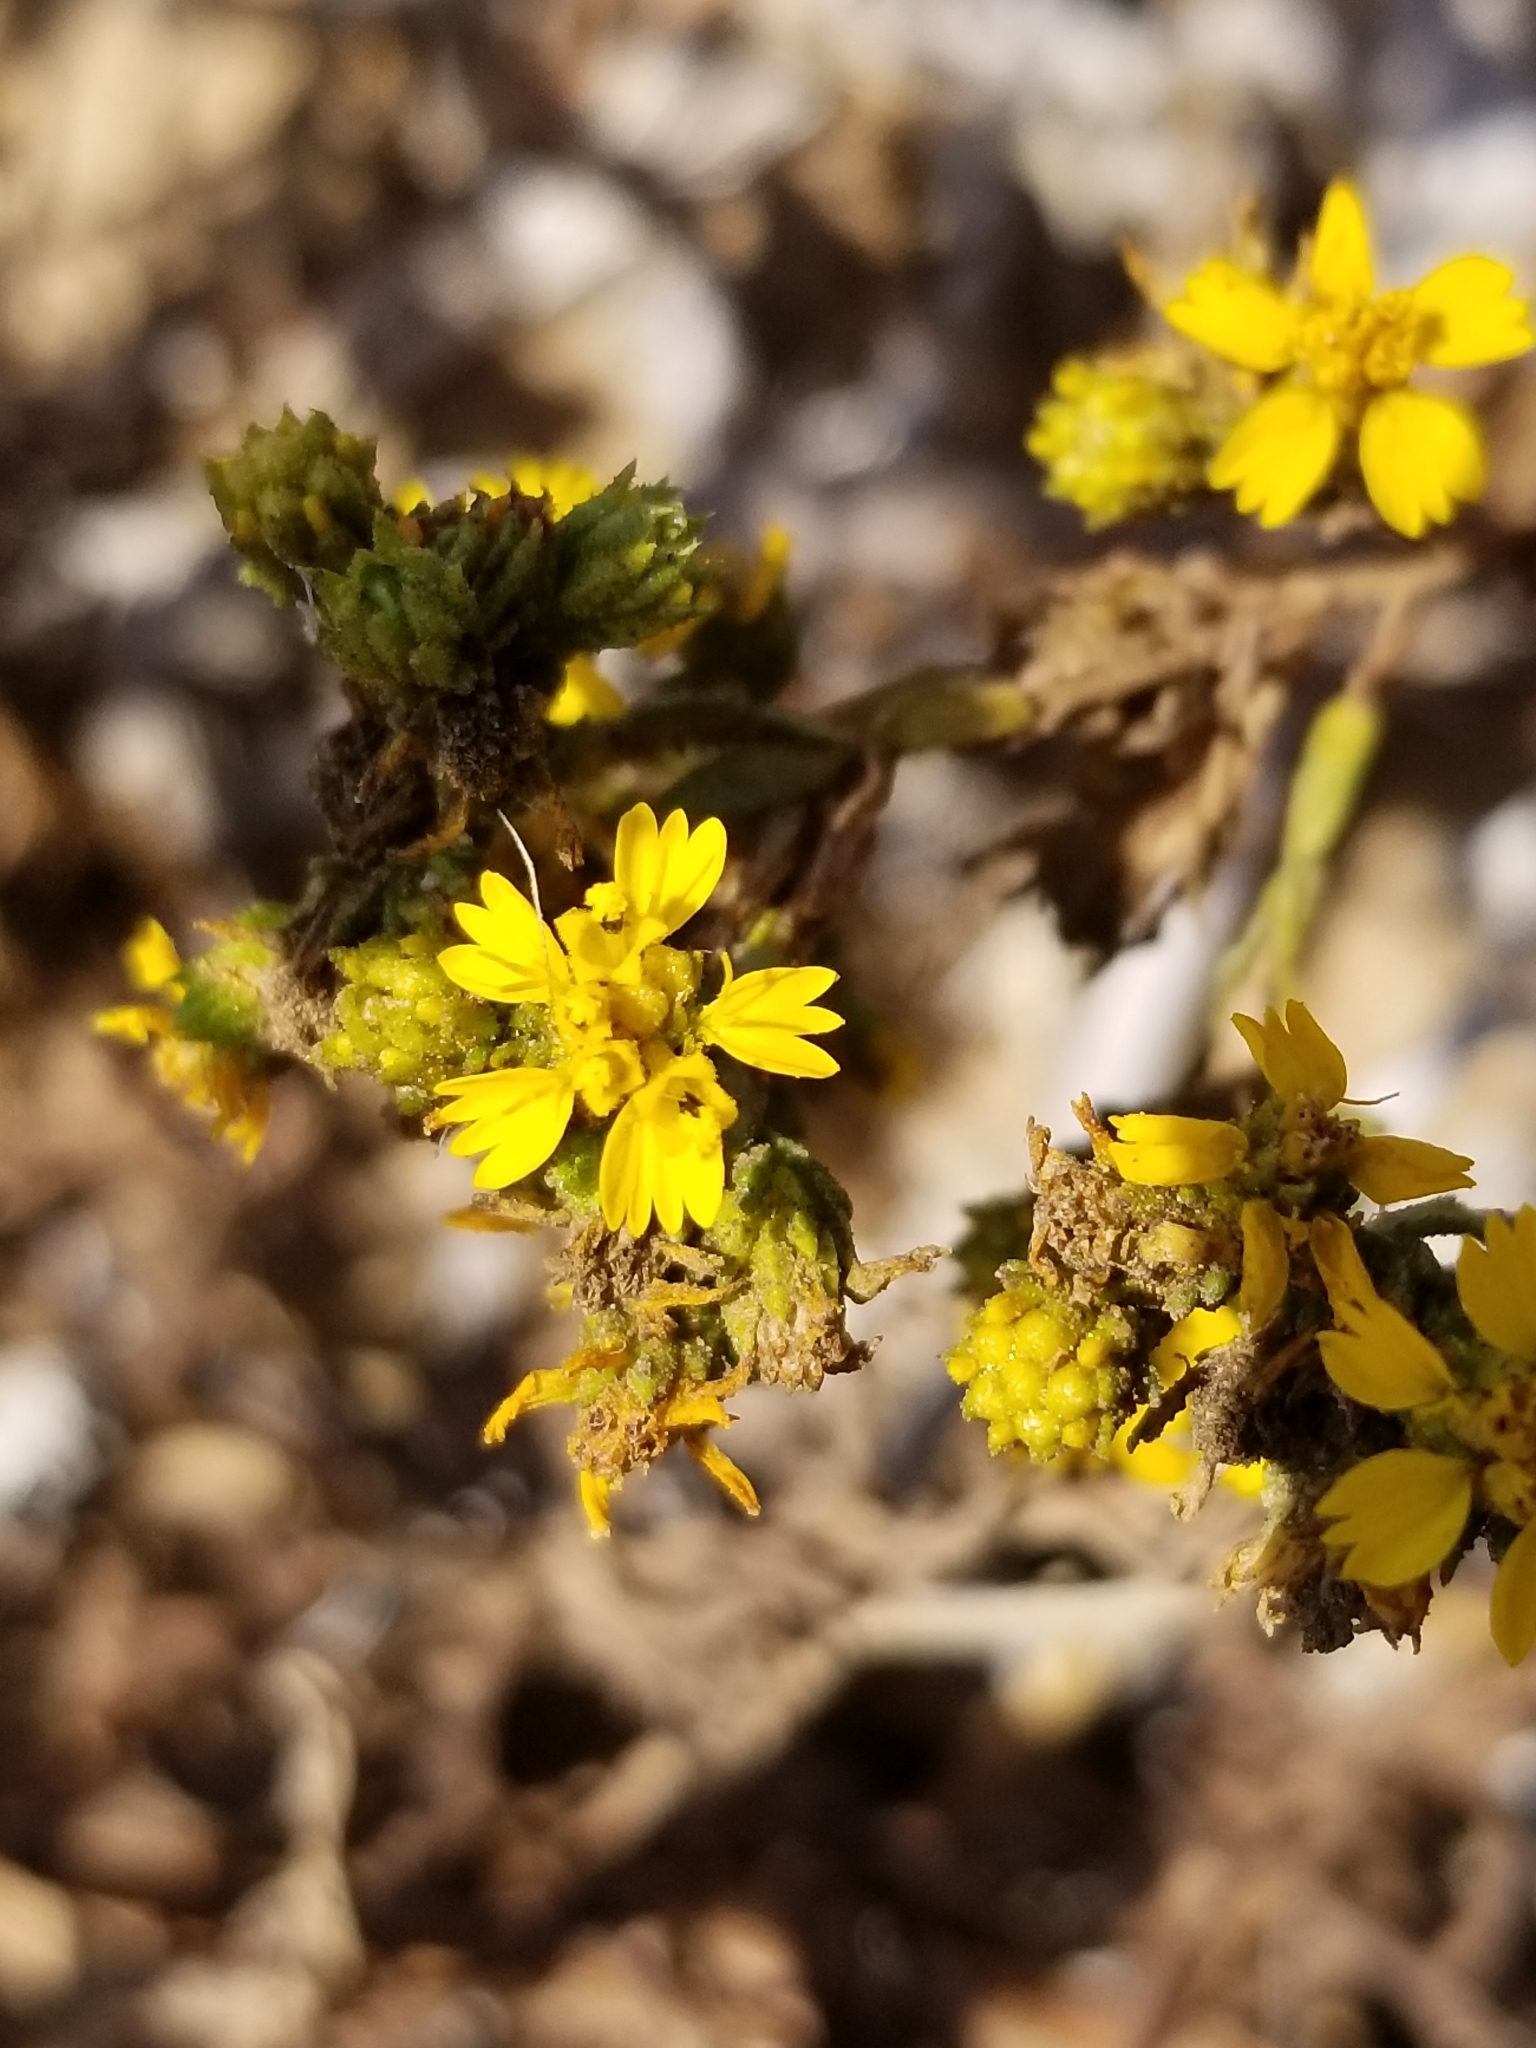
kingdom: Plantae
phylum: Tracheophyta
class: Magnoliopsida
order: Asterales
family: Asteraceae
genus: Deinandra
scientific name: Deinandra fasciculata
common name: Clustered tarweed
